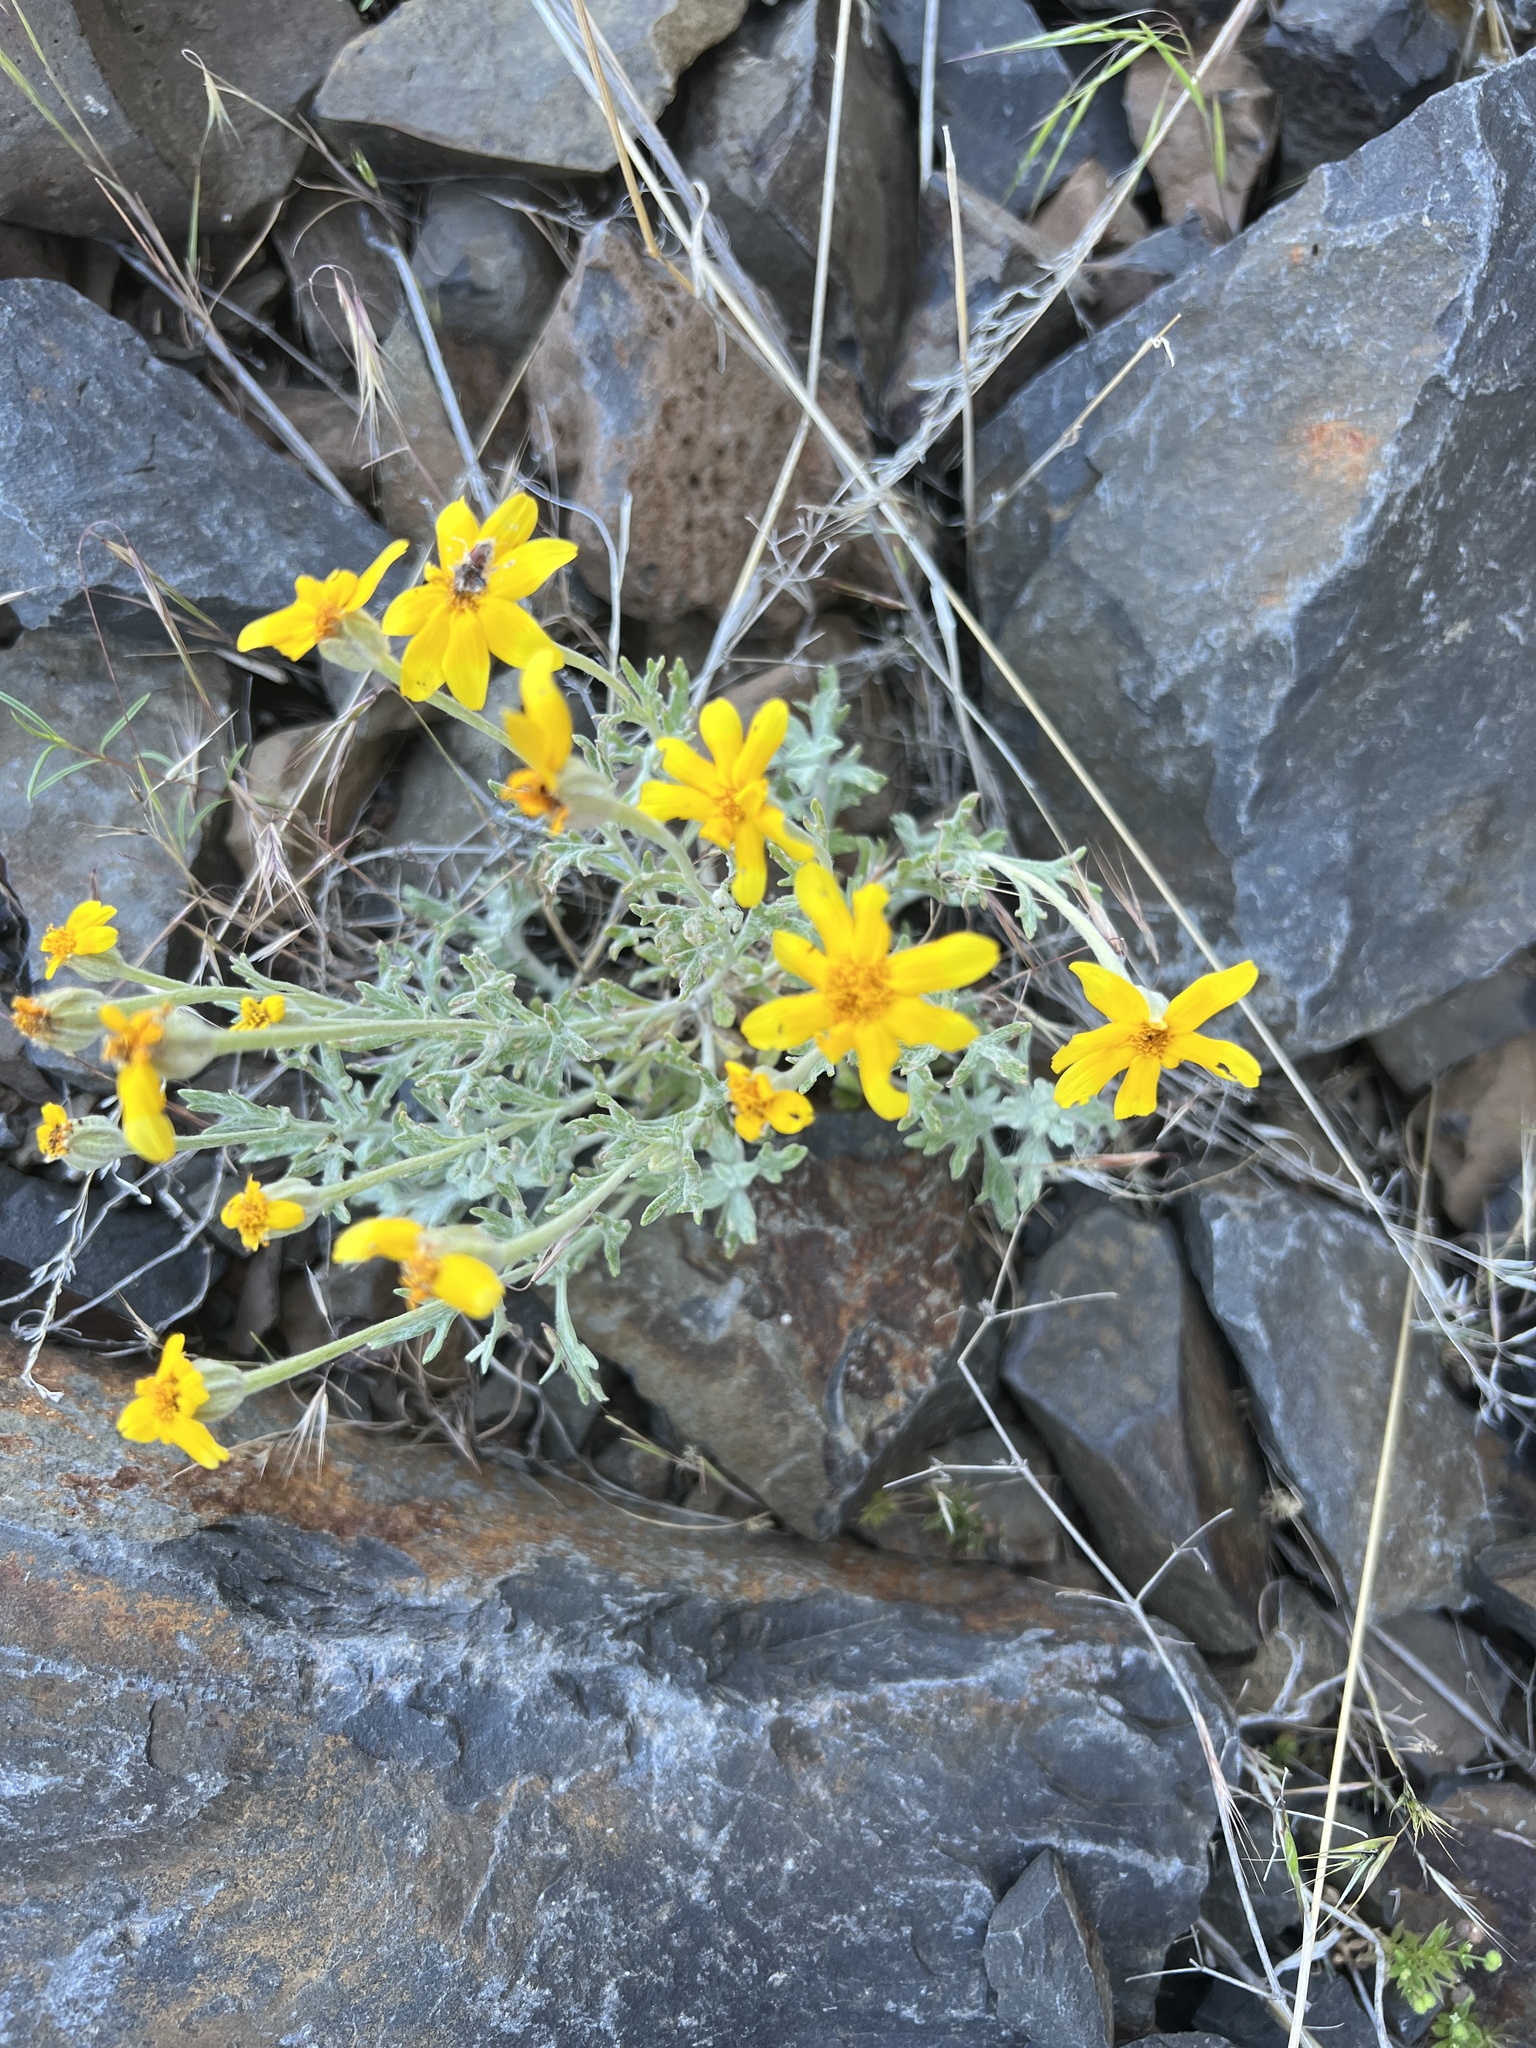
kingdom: Plantae
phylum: Tracheophyta
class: Magnoliopsida
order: Asterales
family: Asteraceae
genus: Eriophyllum
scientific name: Eriophyllum lanatum
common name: Common woolly-sunflower
